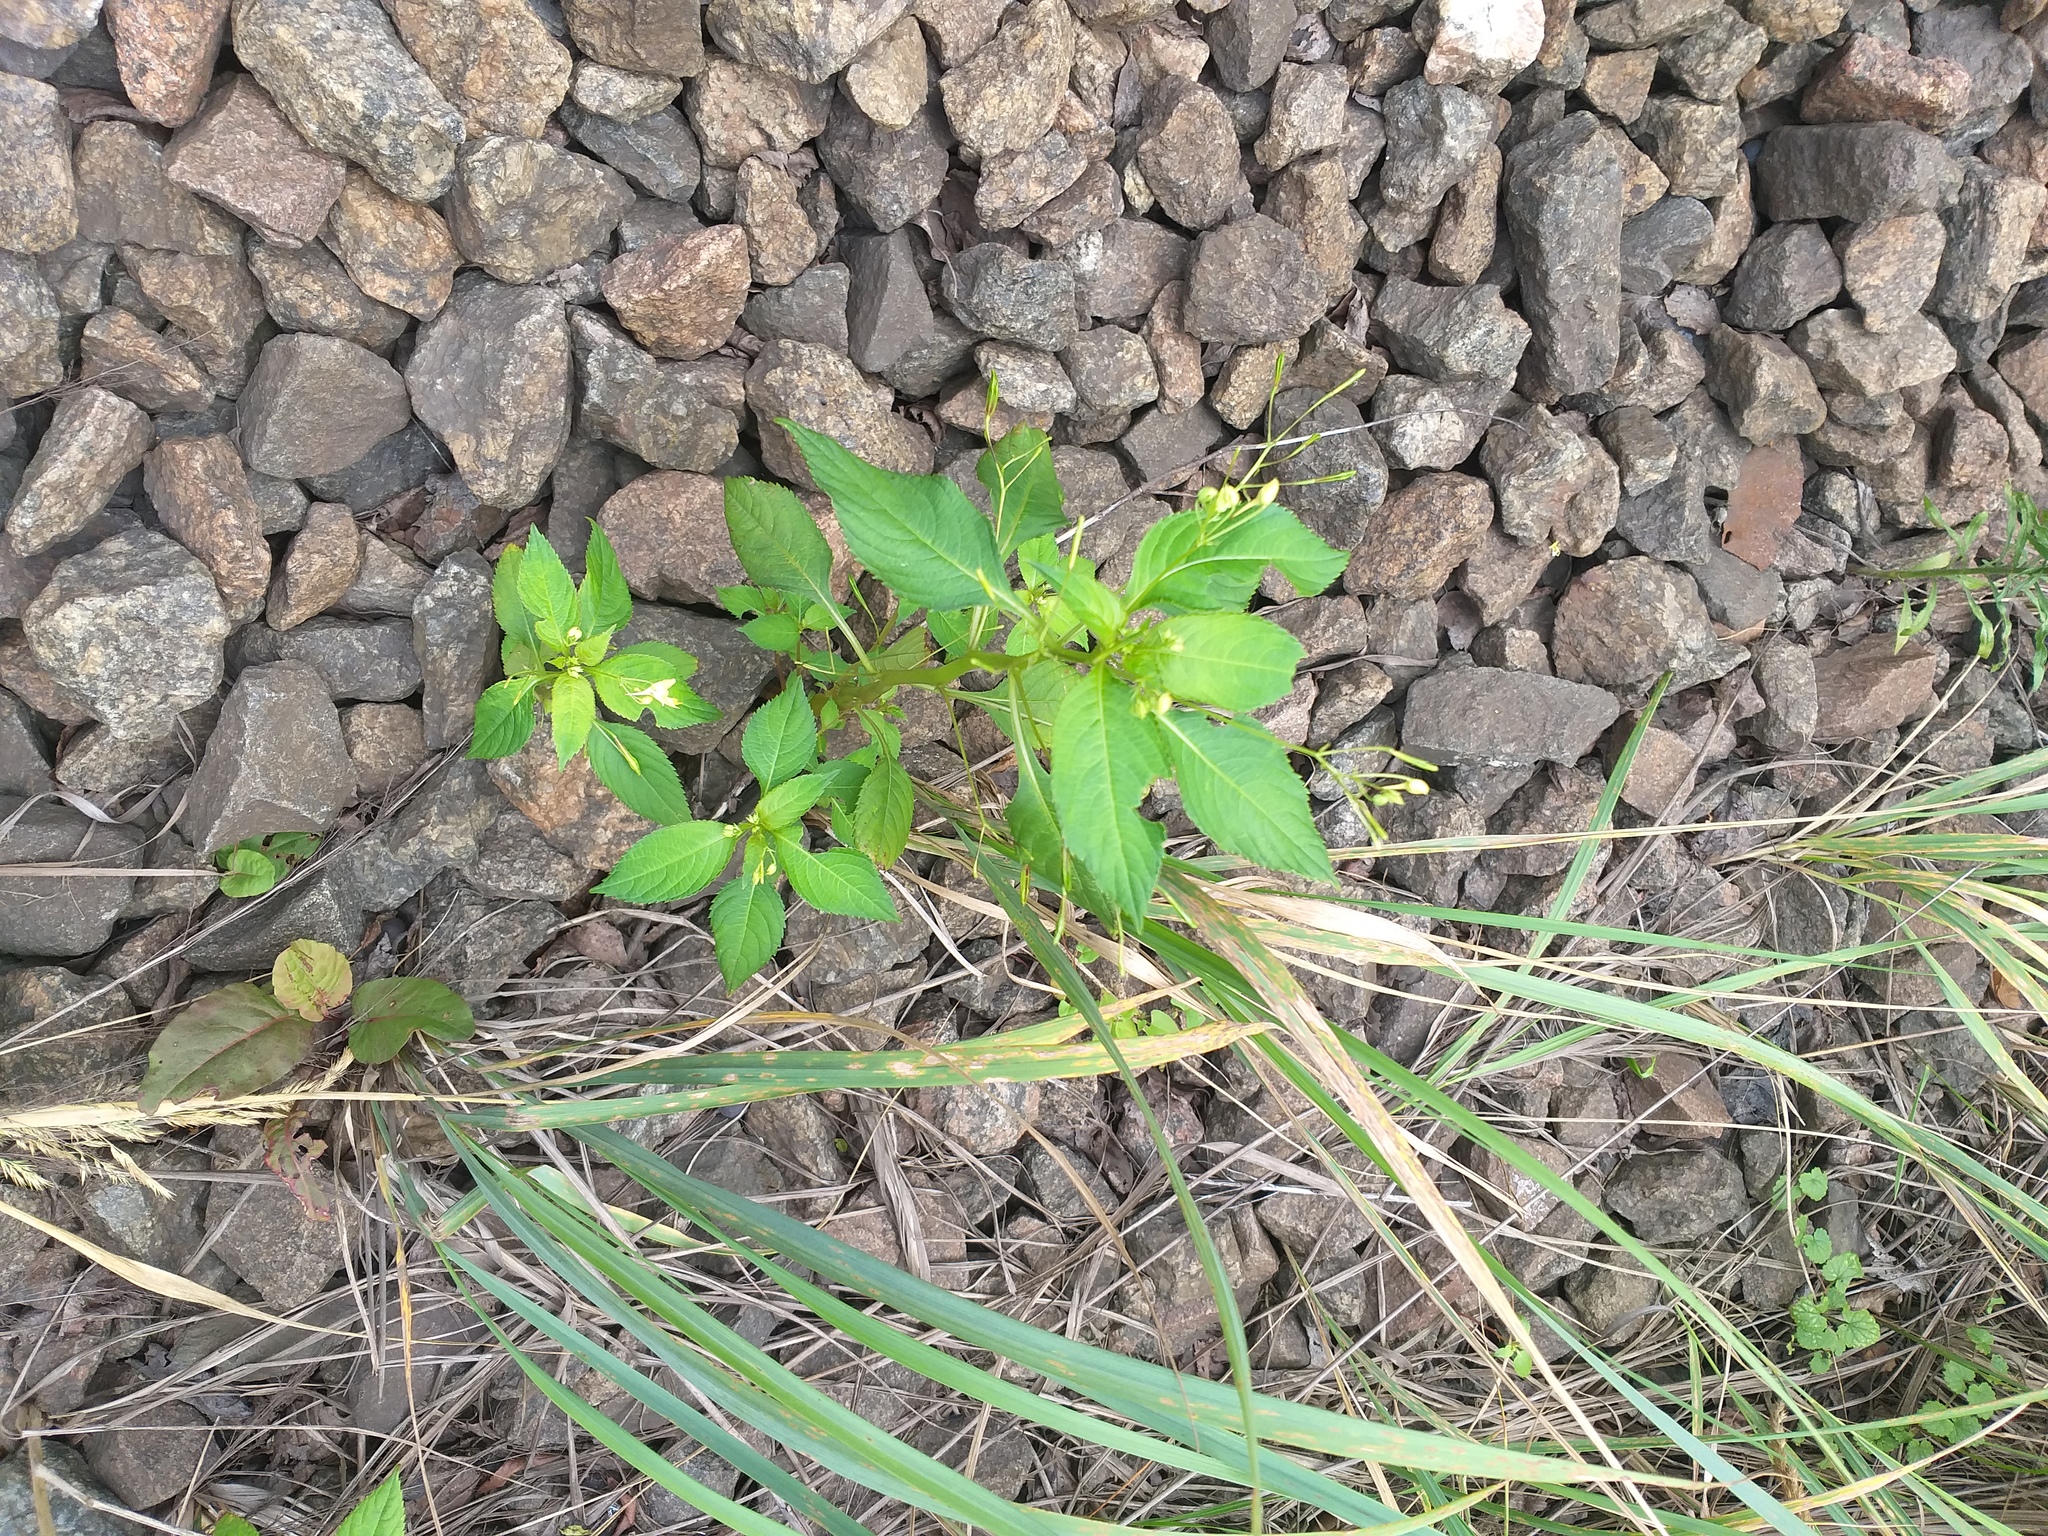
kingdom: Plantae
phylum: Tracheophyta
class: Magnoliopsida
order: Ericales
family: Balsaminaceae
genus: Impatiens
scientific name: Impatiens parviflora
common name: Small balsam
